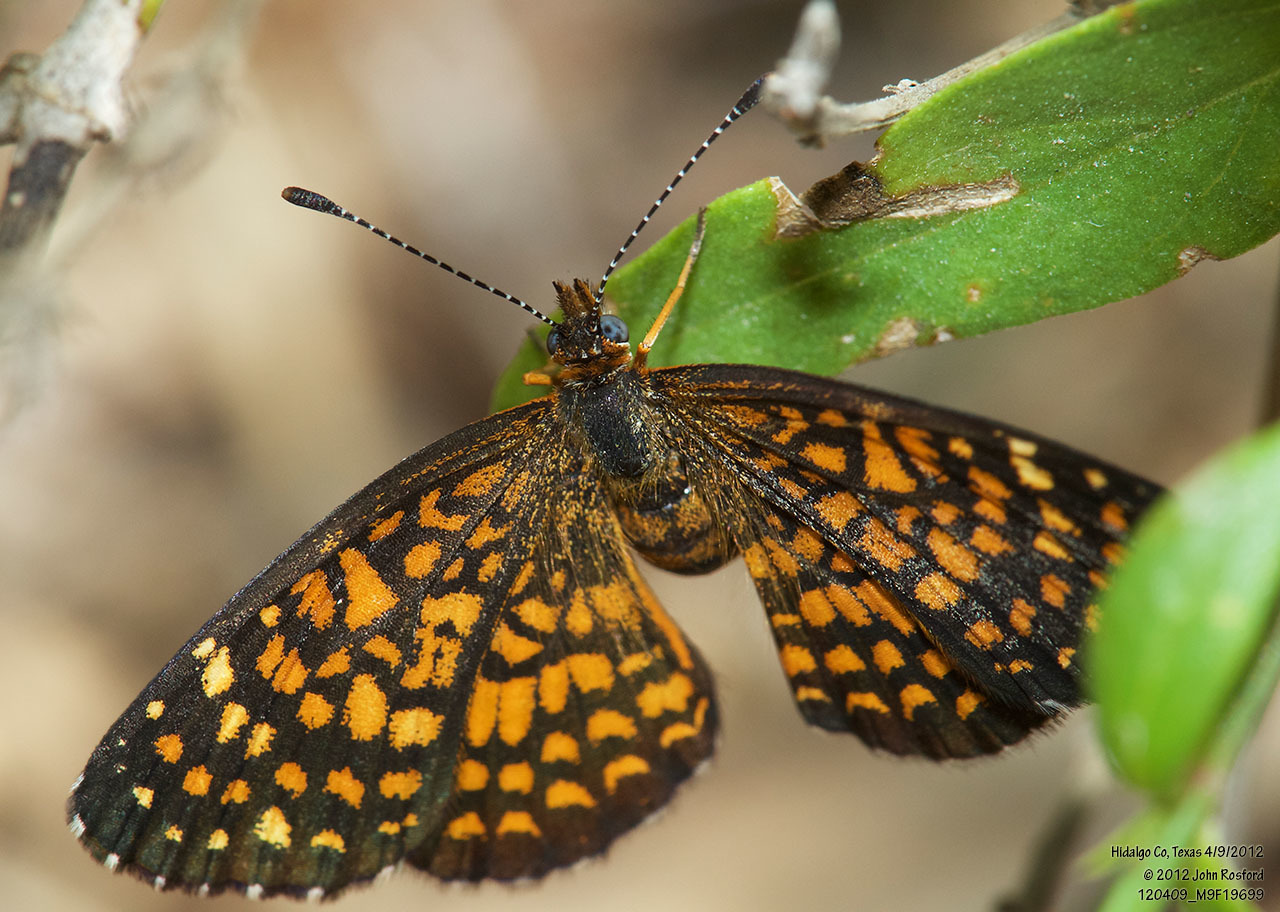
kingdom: Animalia
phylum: Arthropoda
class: Insecta
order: Lepidoptera
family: Nymphalidae
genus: Texola
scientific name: Texola elada
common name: Elada checkerspot
